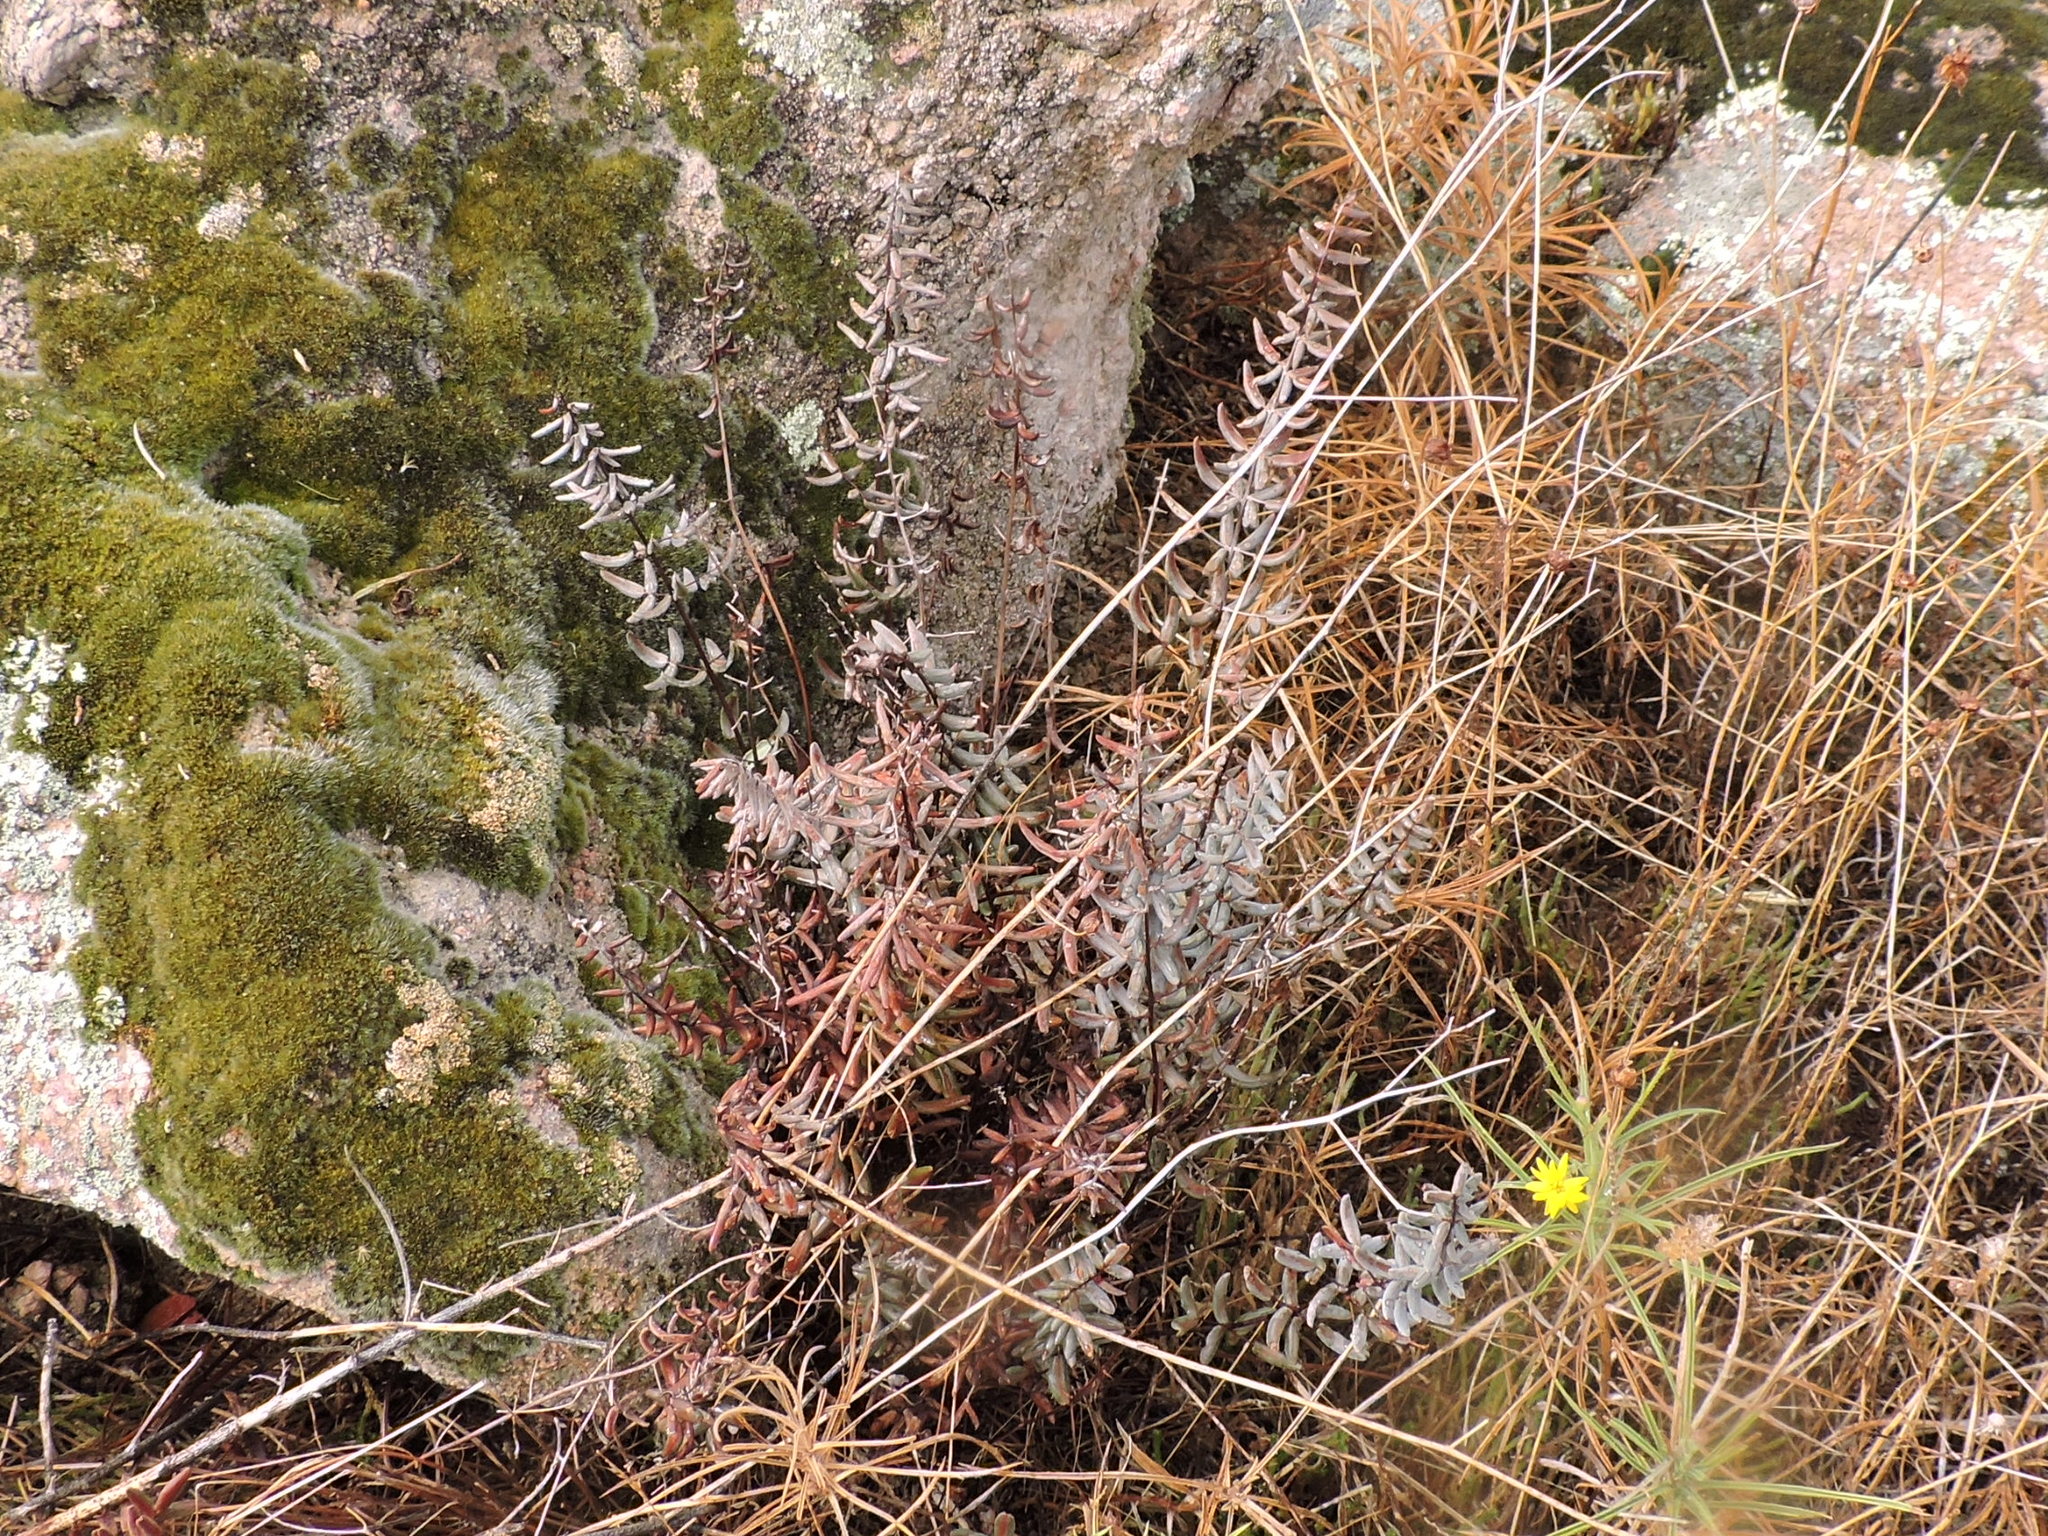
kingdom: Plantae
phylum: Tracheophyta
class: Polypodiopsida
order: Polypodiales
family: Pteridaceae
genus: Pellaea
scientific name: Pellaea wrightiana
